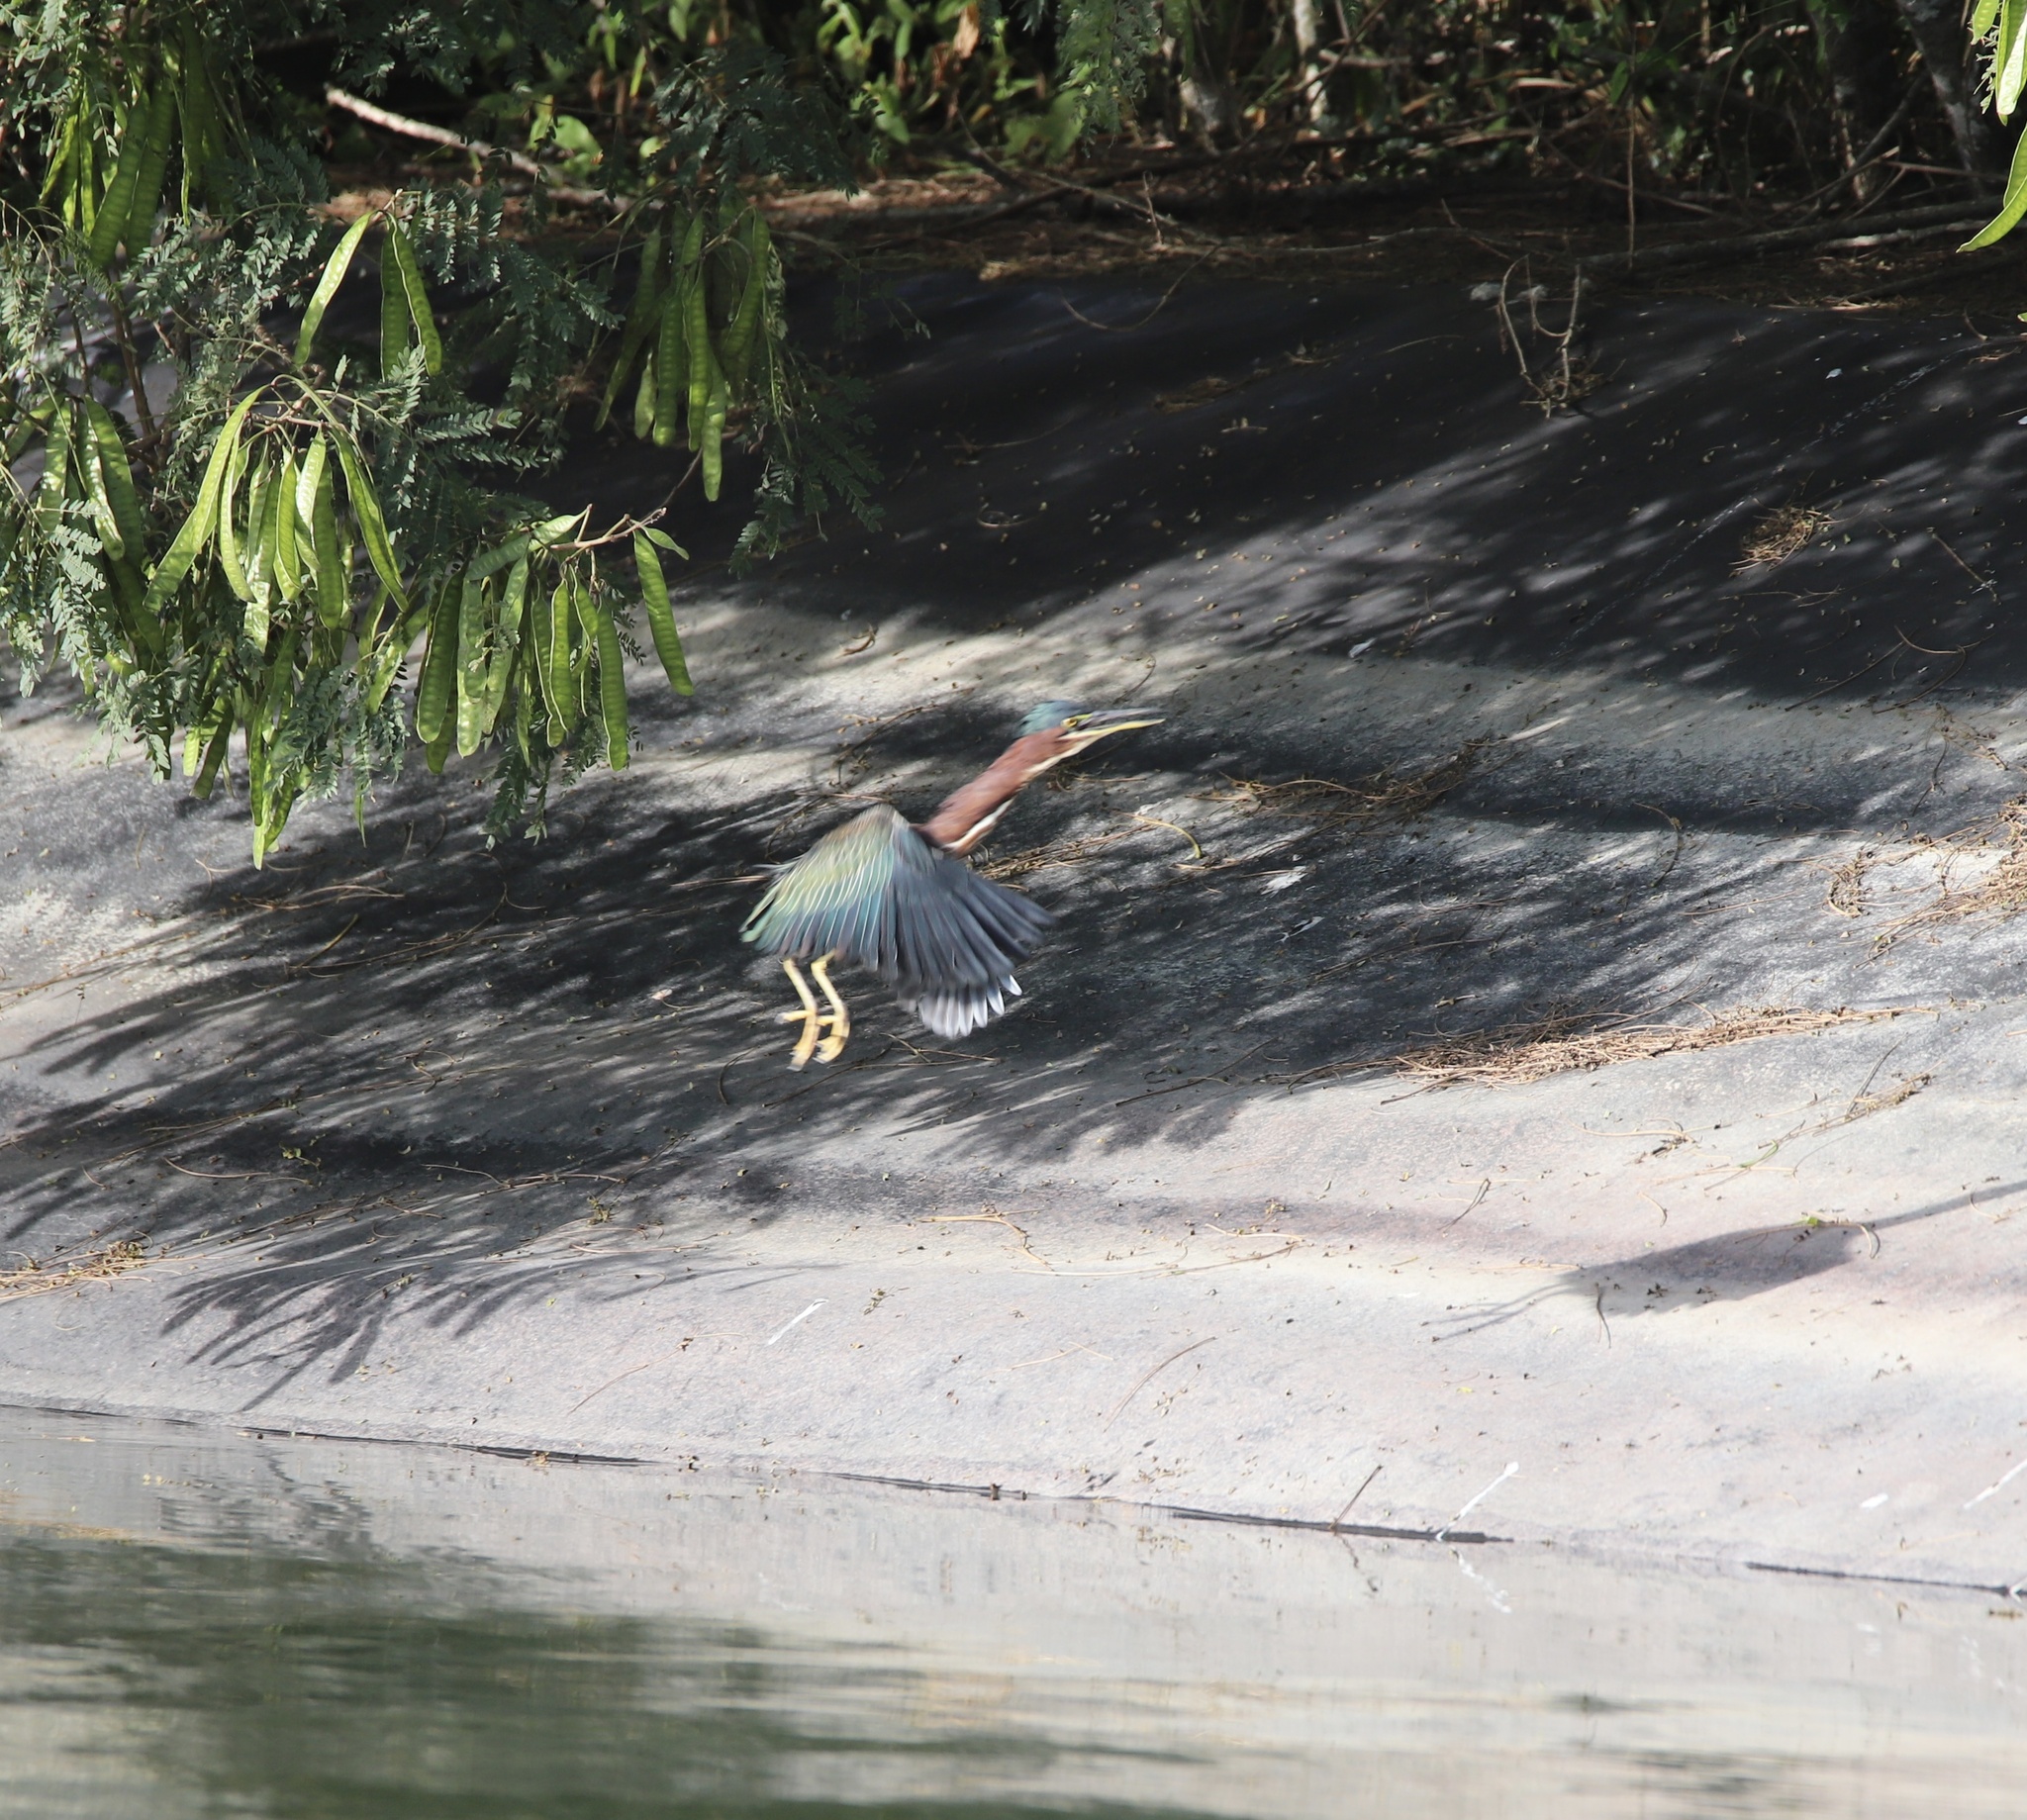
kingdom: Animalia
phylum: Chordata
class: Aves
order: Pelecaniformes
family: Ardeidae
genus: Butorides
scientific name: Butorides virescens
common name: Green heron
